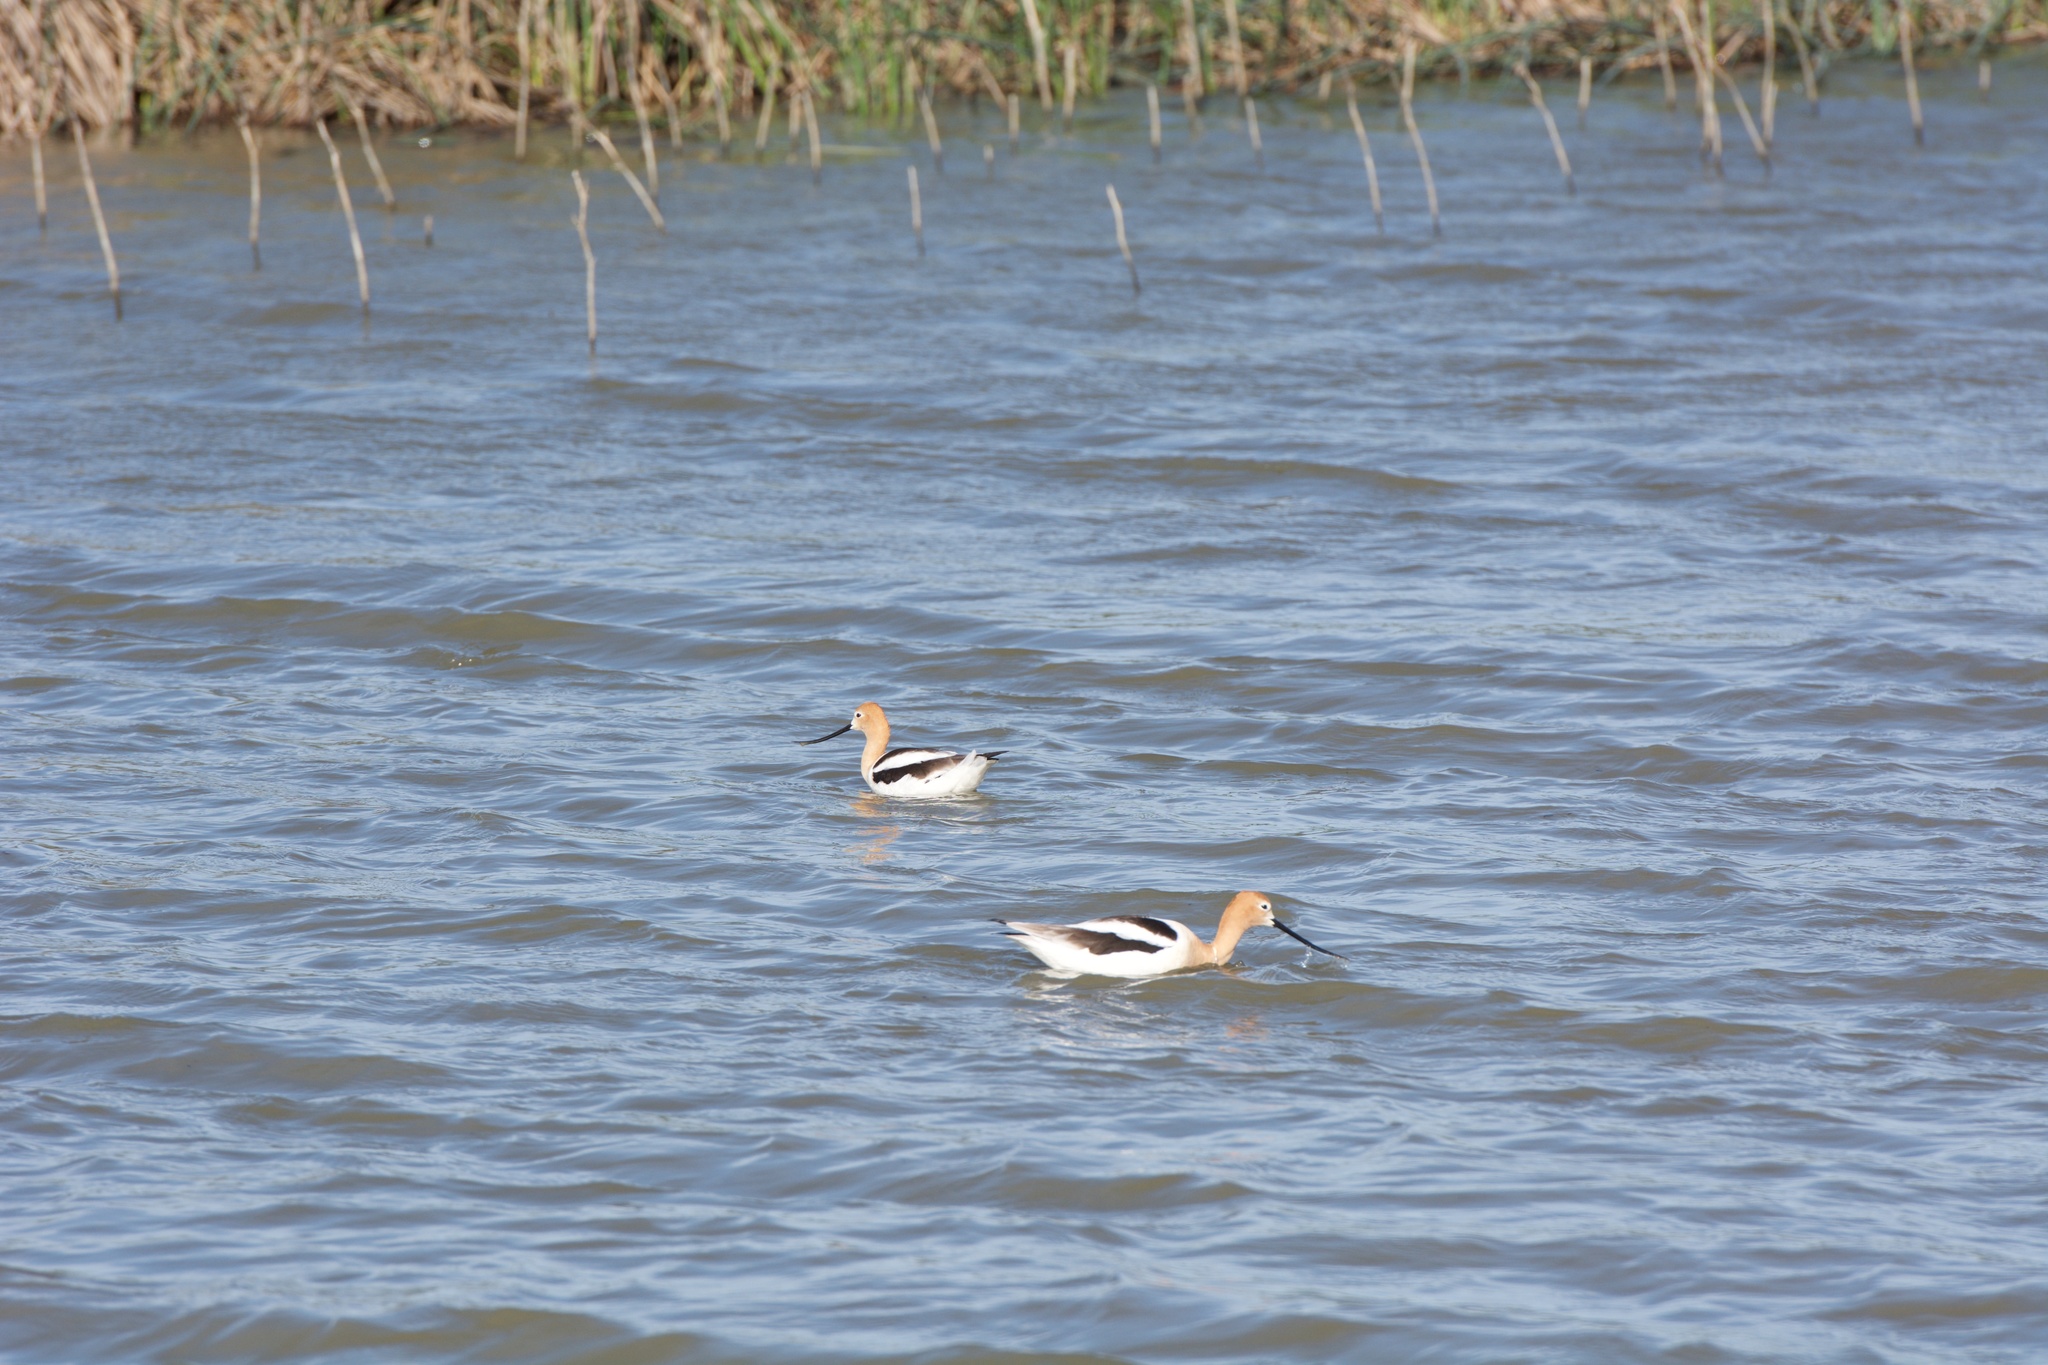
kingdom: Animalia
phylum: Chordata
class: Aves
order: Charadriiformes
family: Recurvirostridae
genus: Recurvirostra
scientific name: Recurvirostra americana
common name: American avocet
